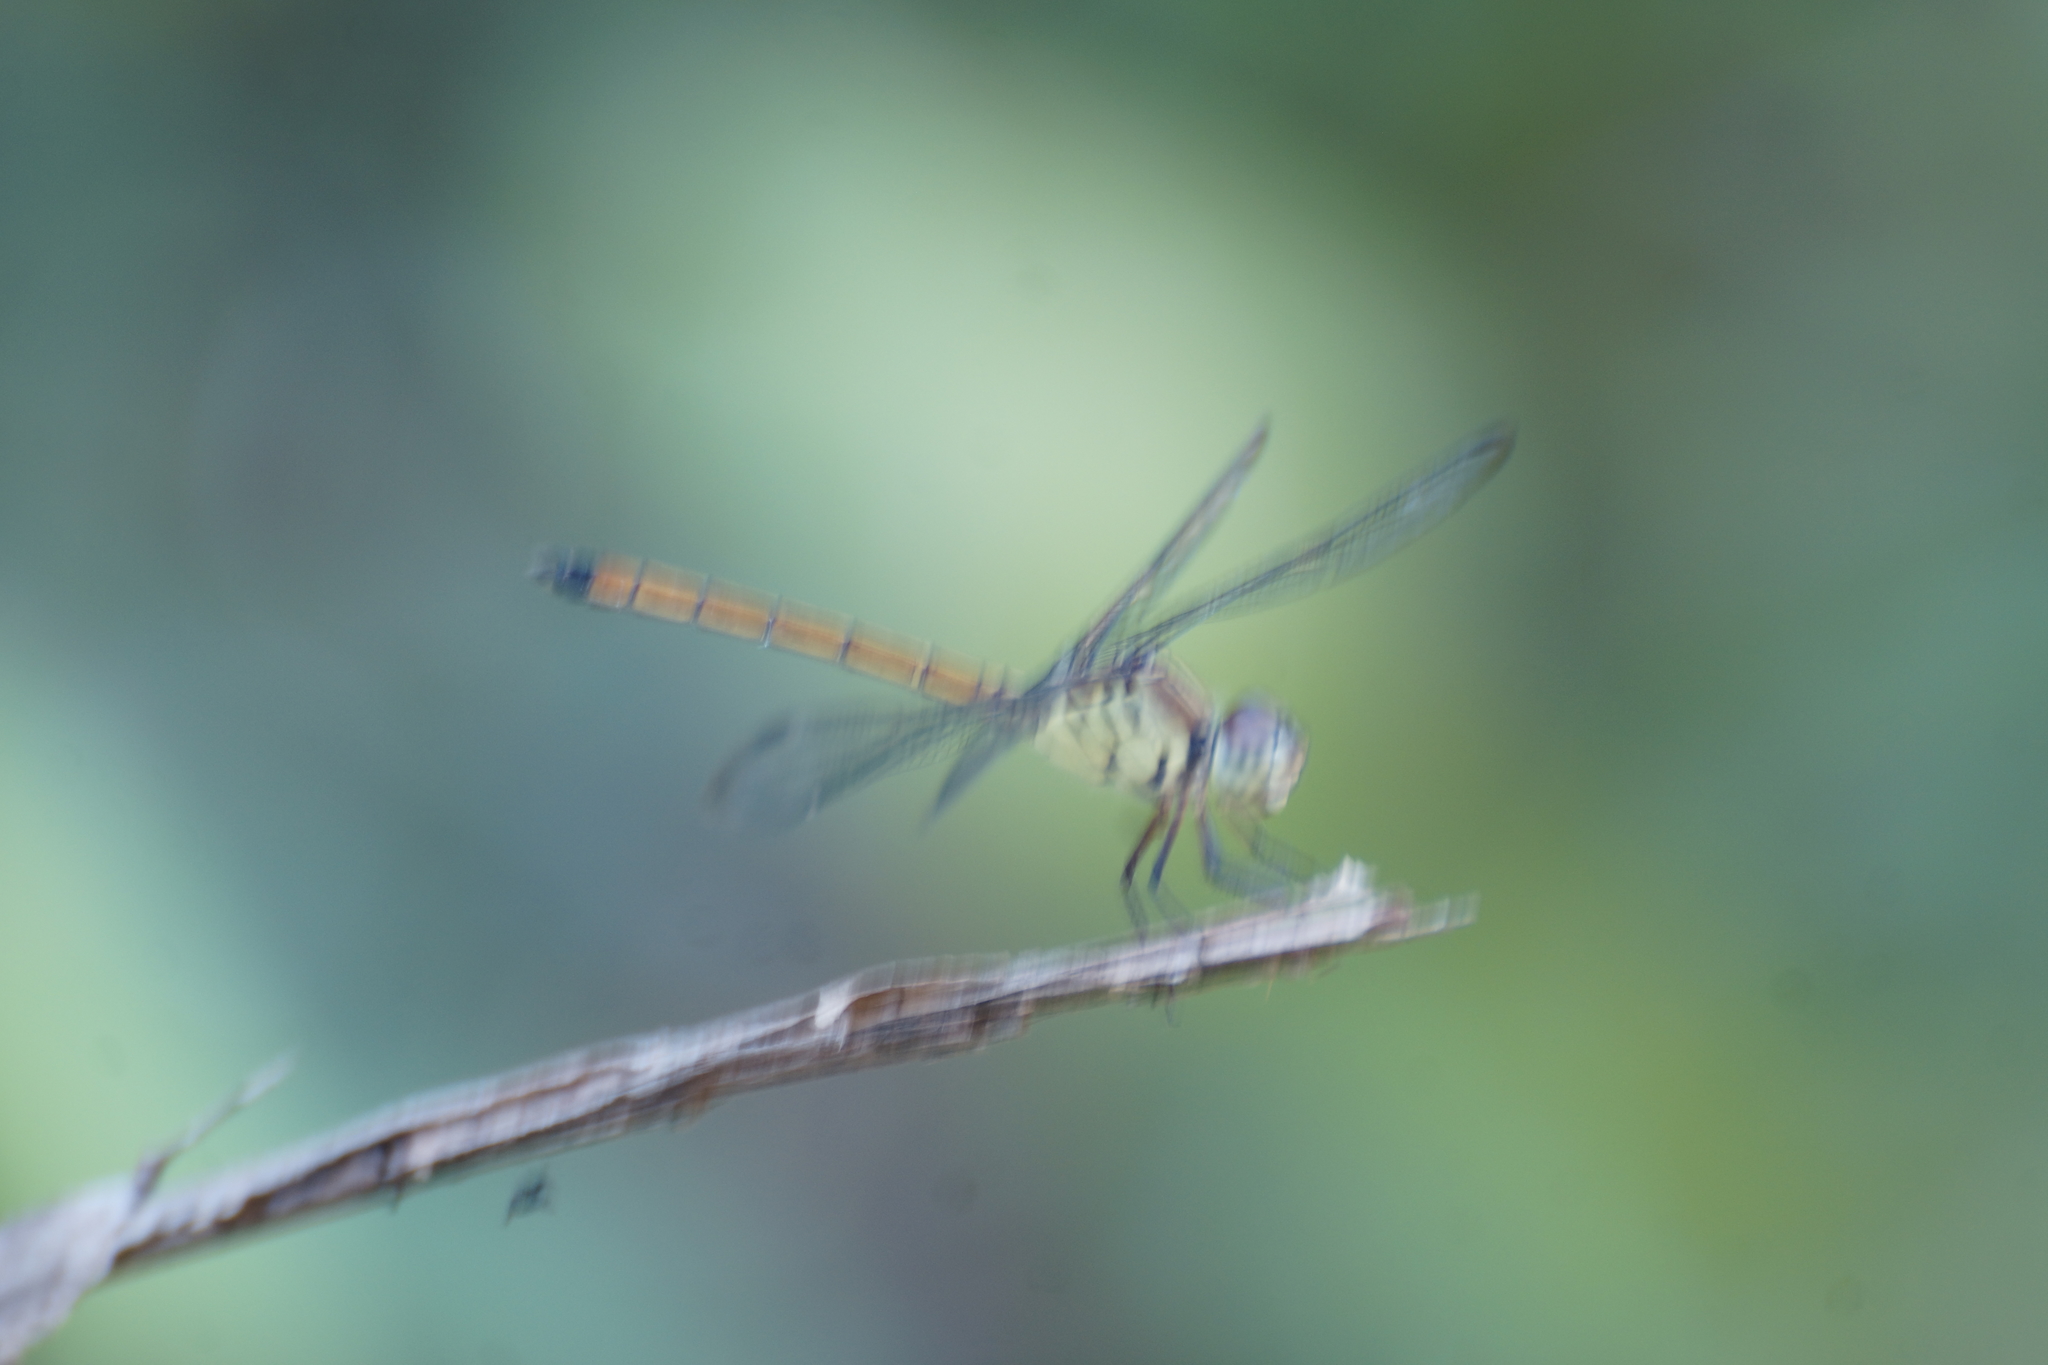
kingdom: Animalia
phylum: Arthropoda
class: Insecta
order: Odonata
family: Libellulidae
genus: Lathrecista
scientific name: Lathrecista asiatica
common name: Scarlet grenadier
